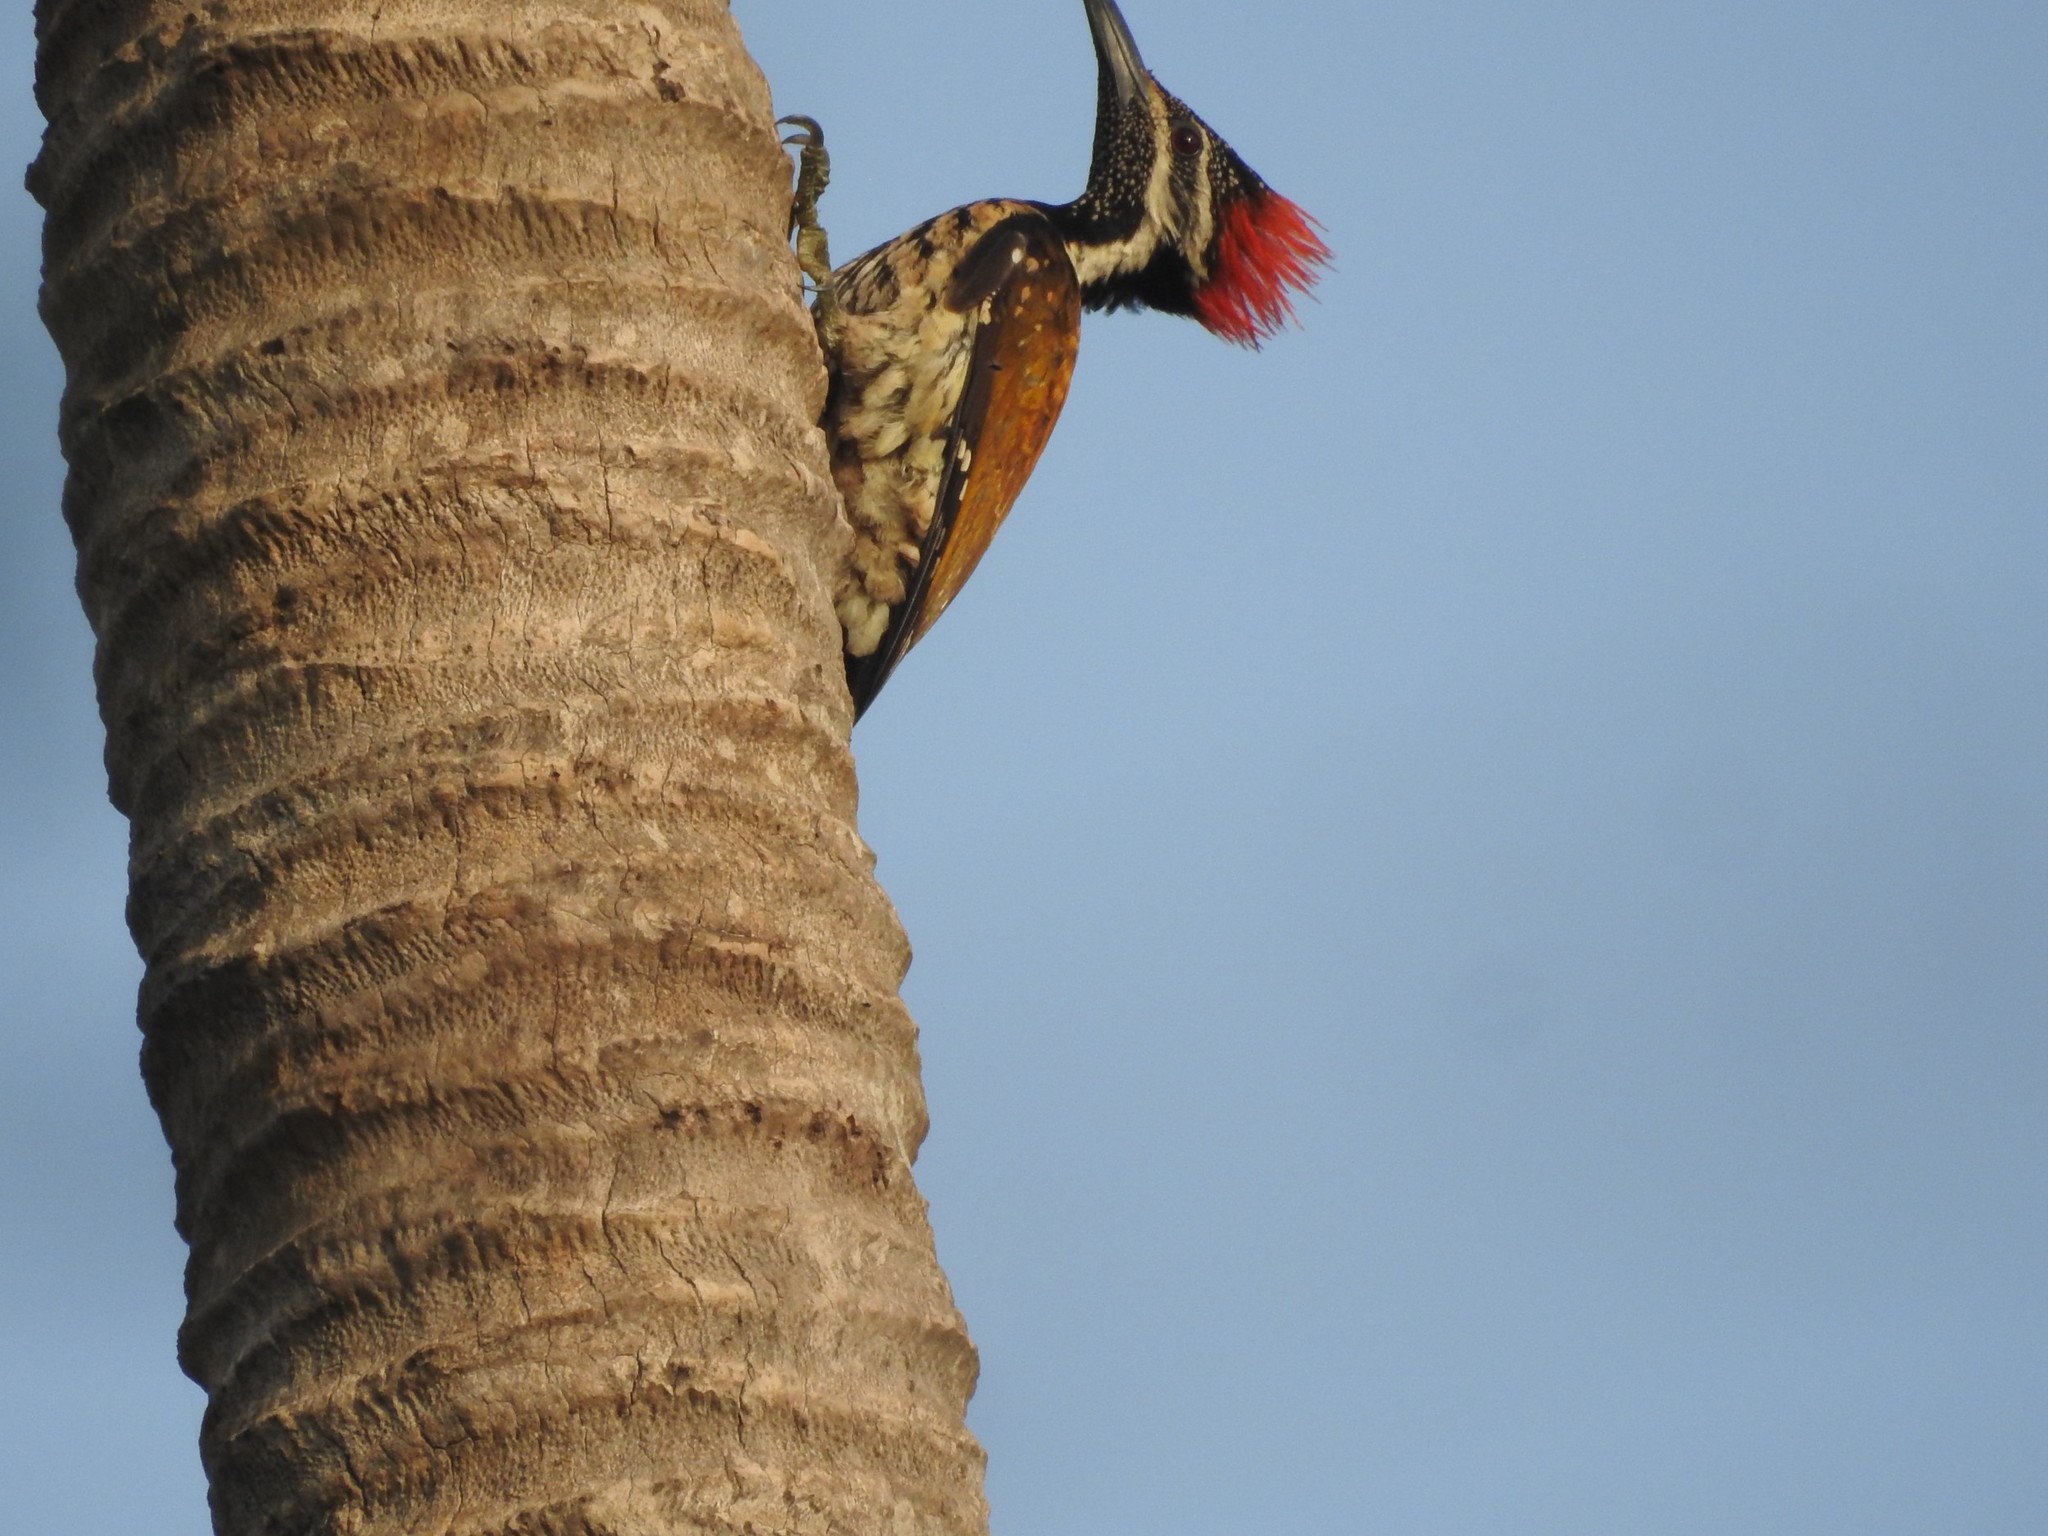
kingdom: Animalia
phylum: Chordata
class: Aves
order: Piciformes
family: Picidae
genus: Dinopium
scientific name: Dinopium benghalense
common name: Black-rumped flameback
